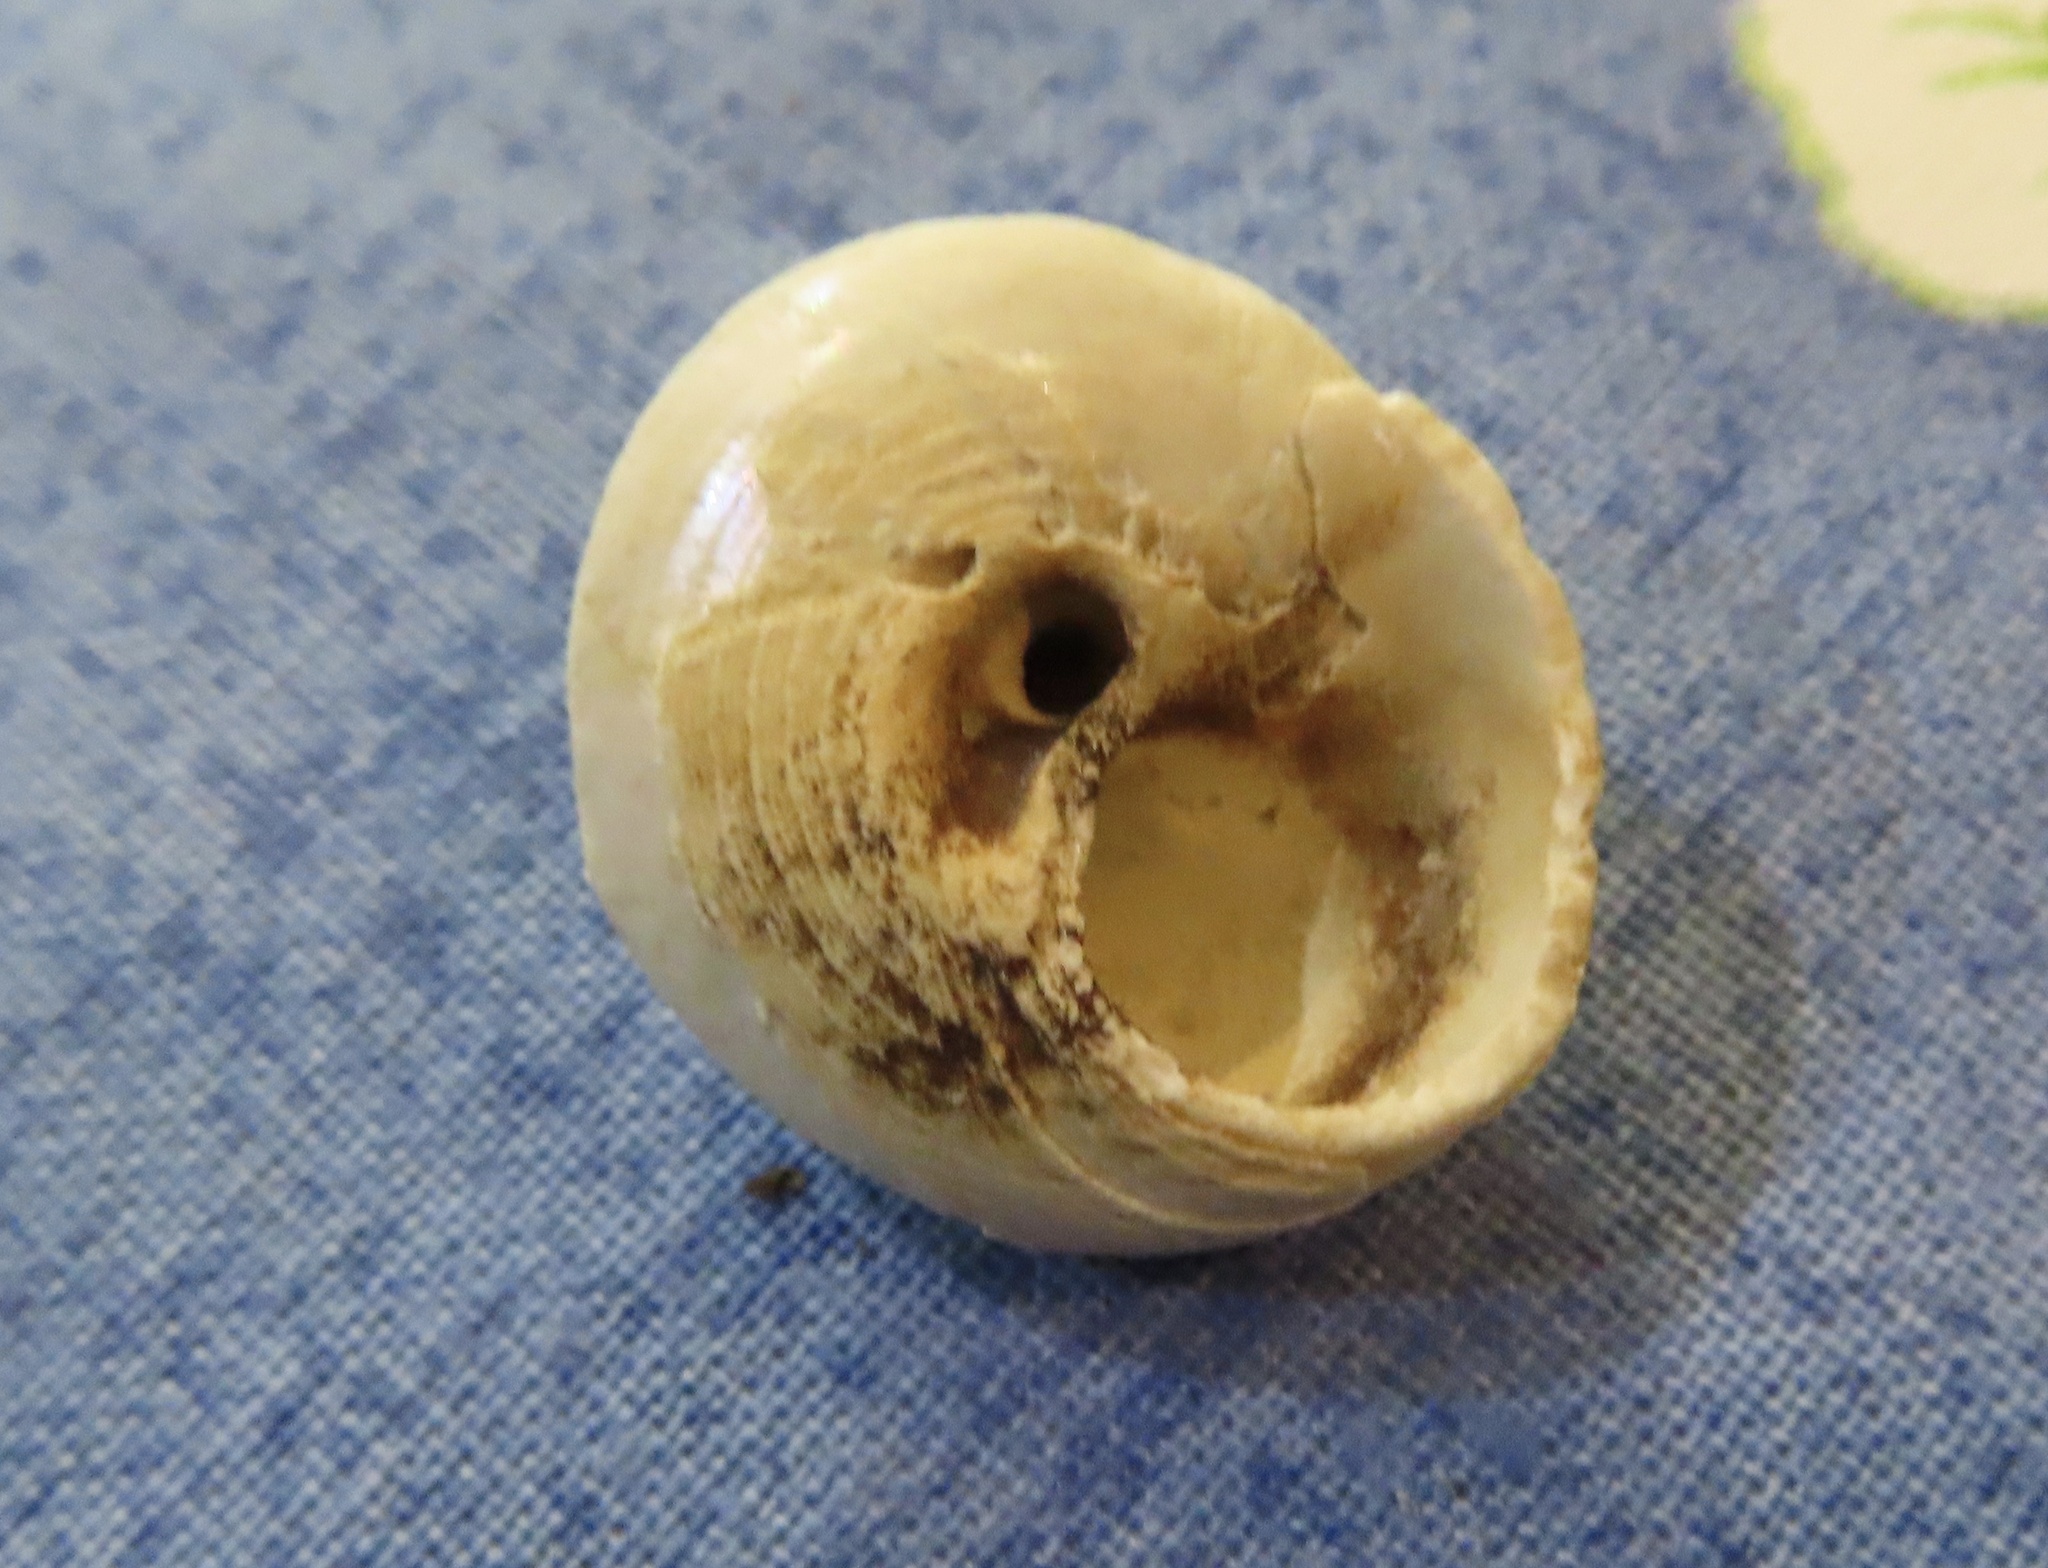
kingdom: Animalia
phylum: Mollusca
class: Gastropoda
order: Trochida
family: Trochidae
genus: Gibbula
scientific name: Gibbula magus
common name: Turban top shell
